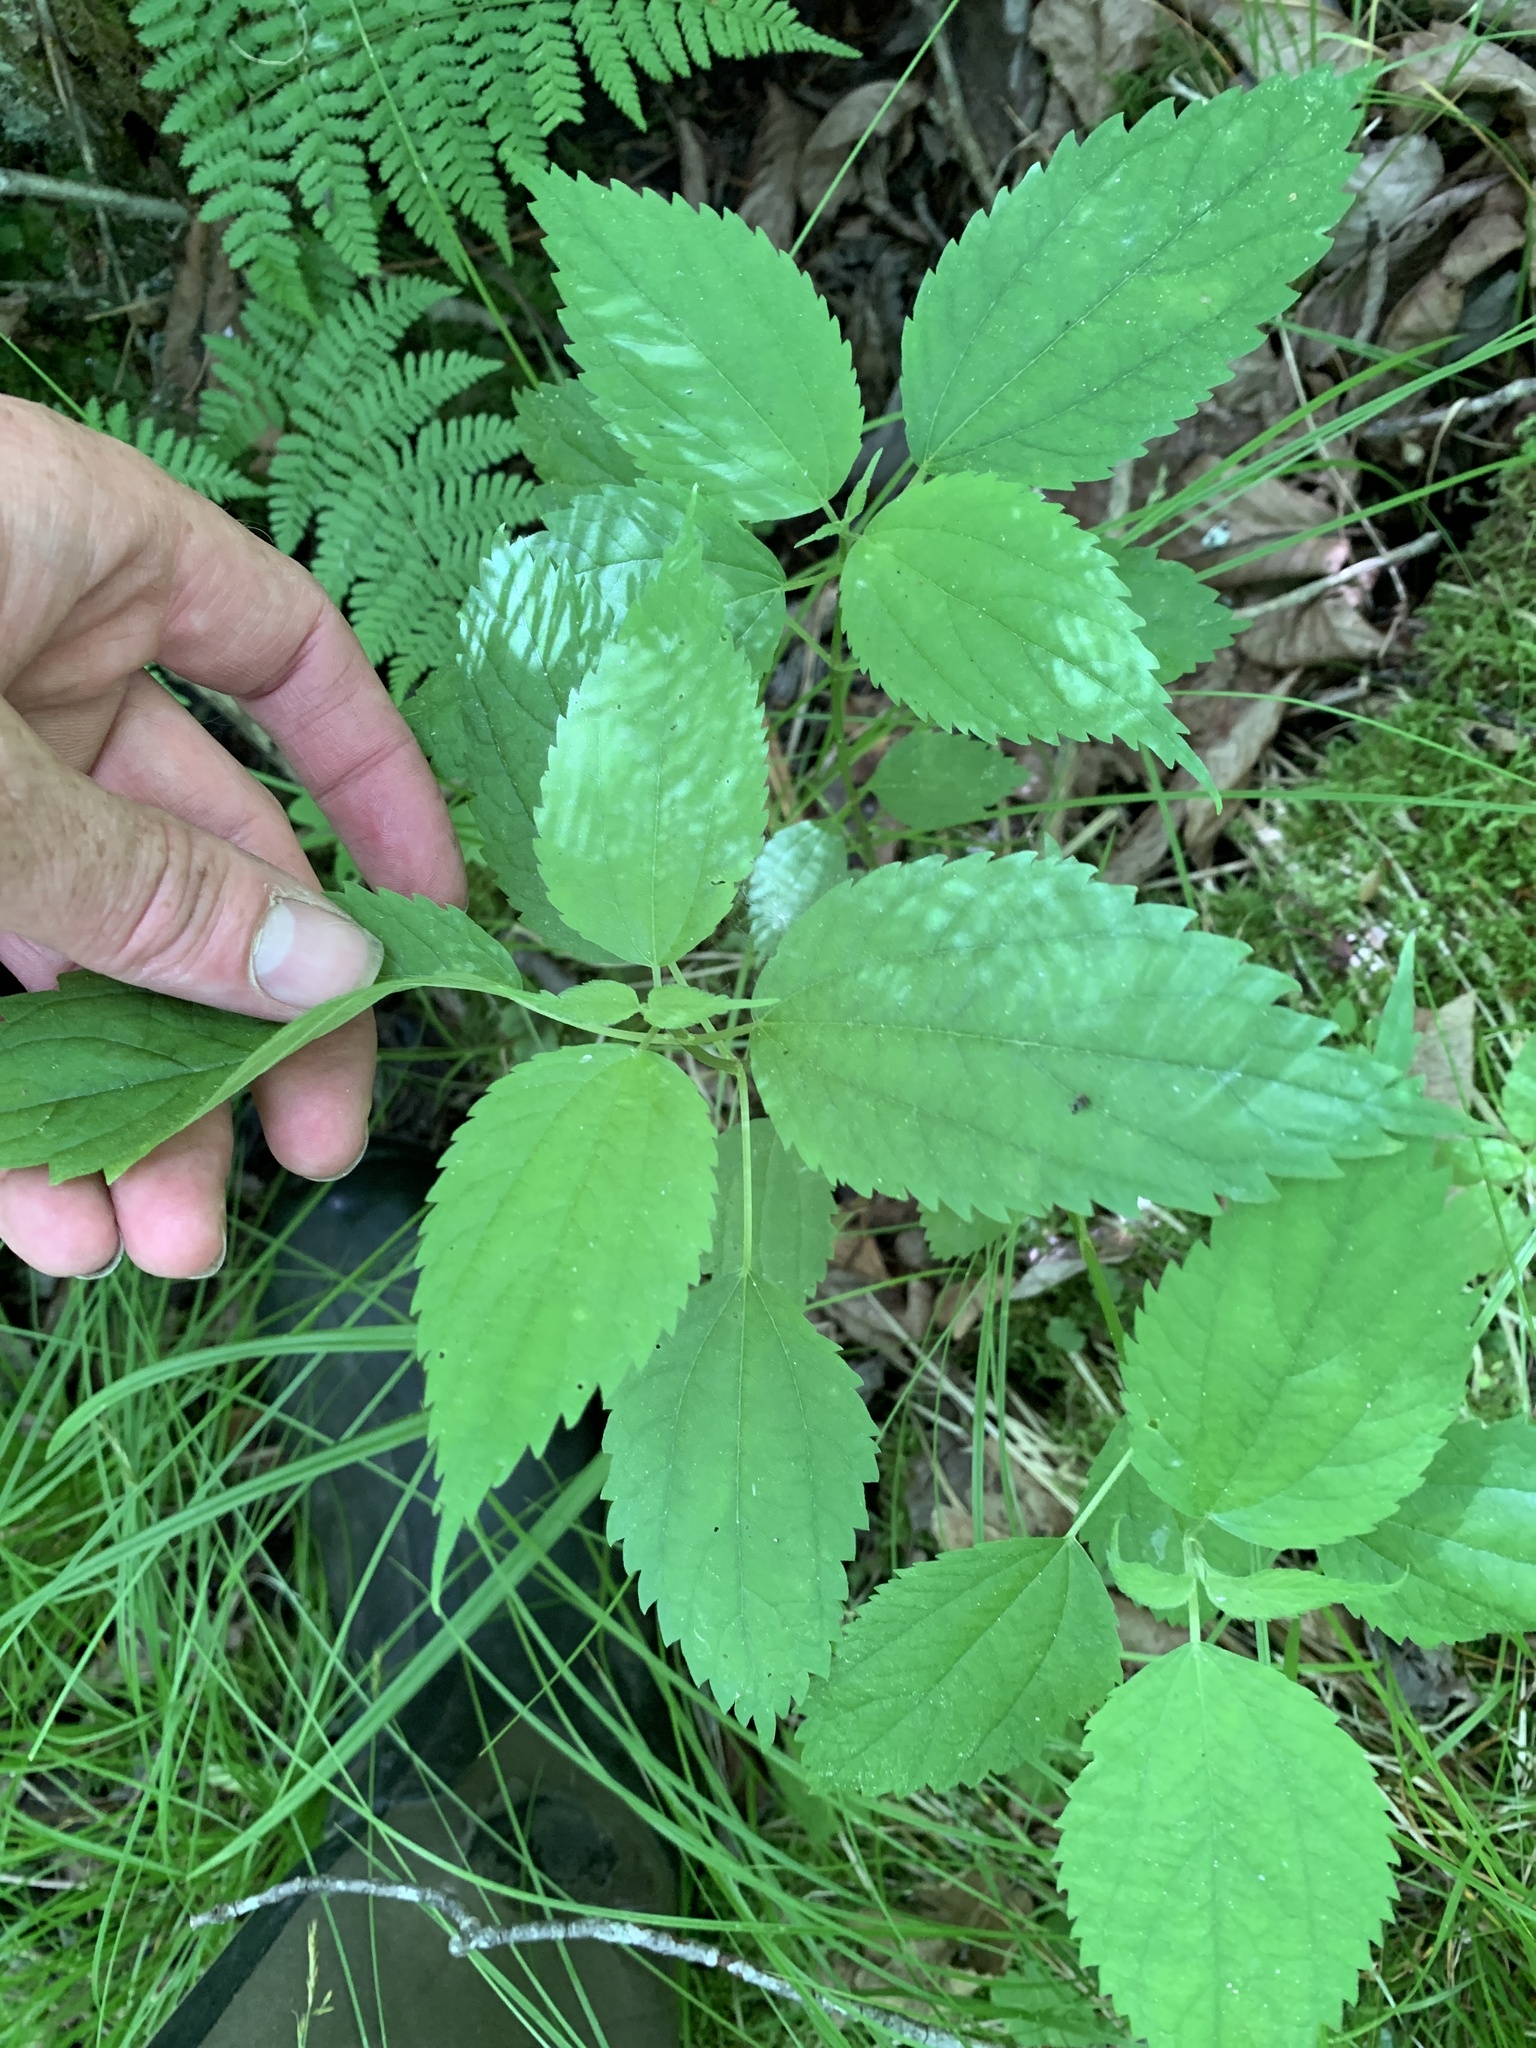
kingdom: Plantae
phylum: Tracheophyta
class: Magnoliopsida
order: Rosales
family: Urticaceae
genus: Boehmeria
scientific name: Boehmeria cylindrica
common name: Bog-hemp
